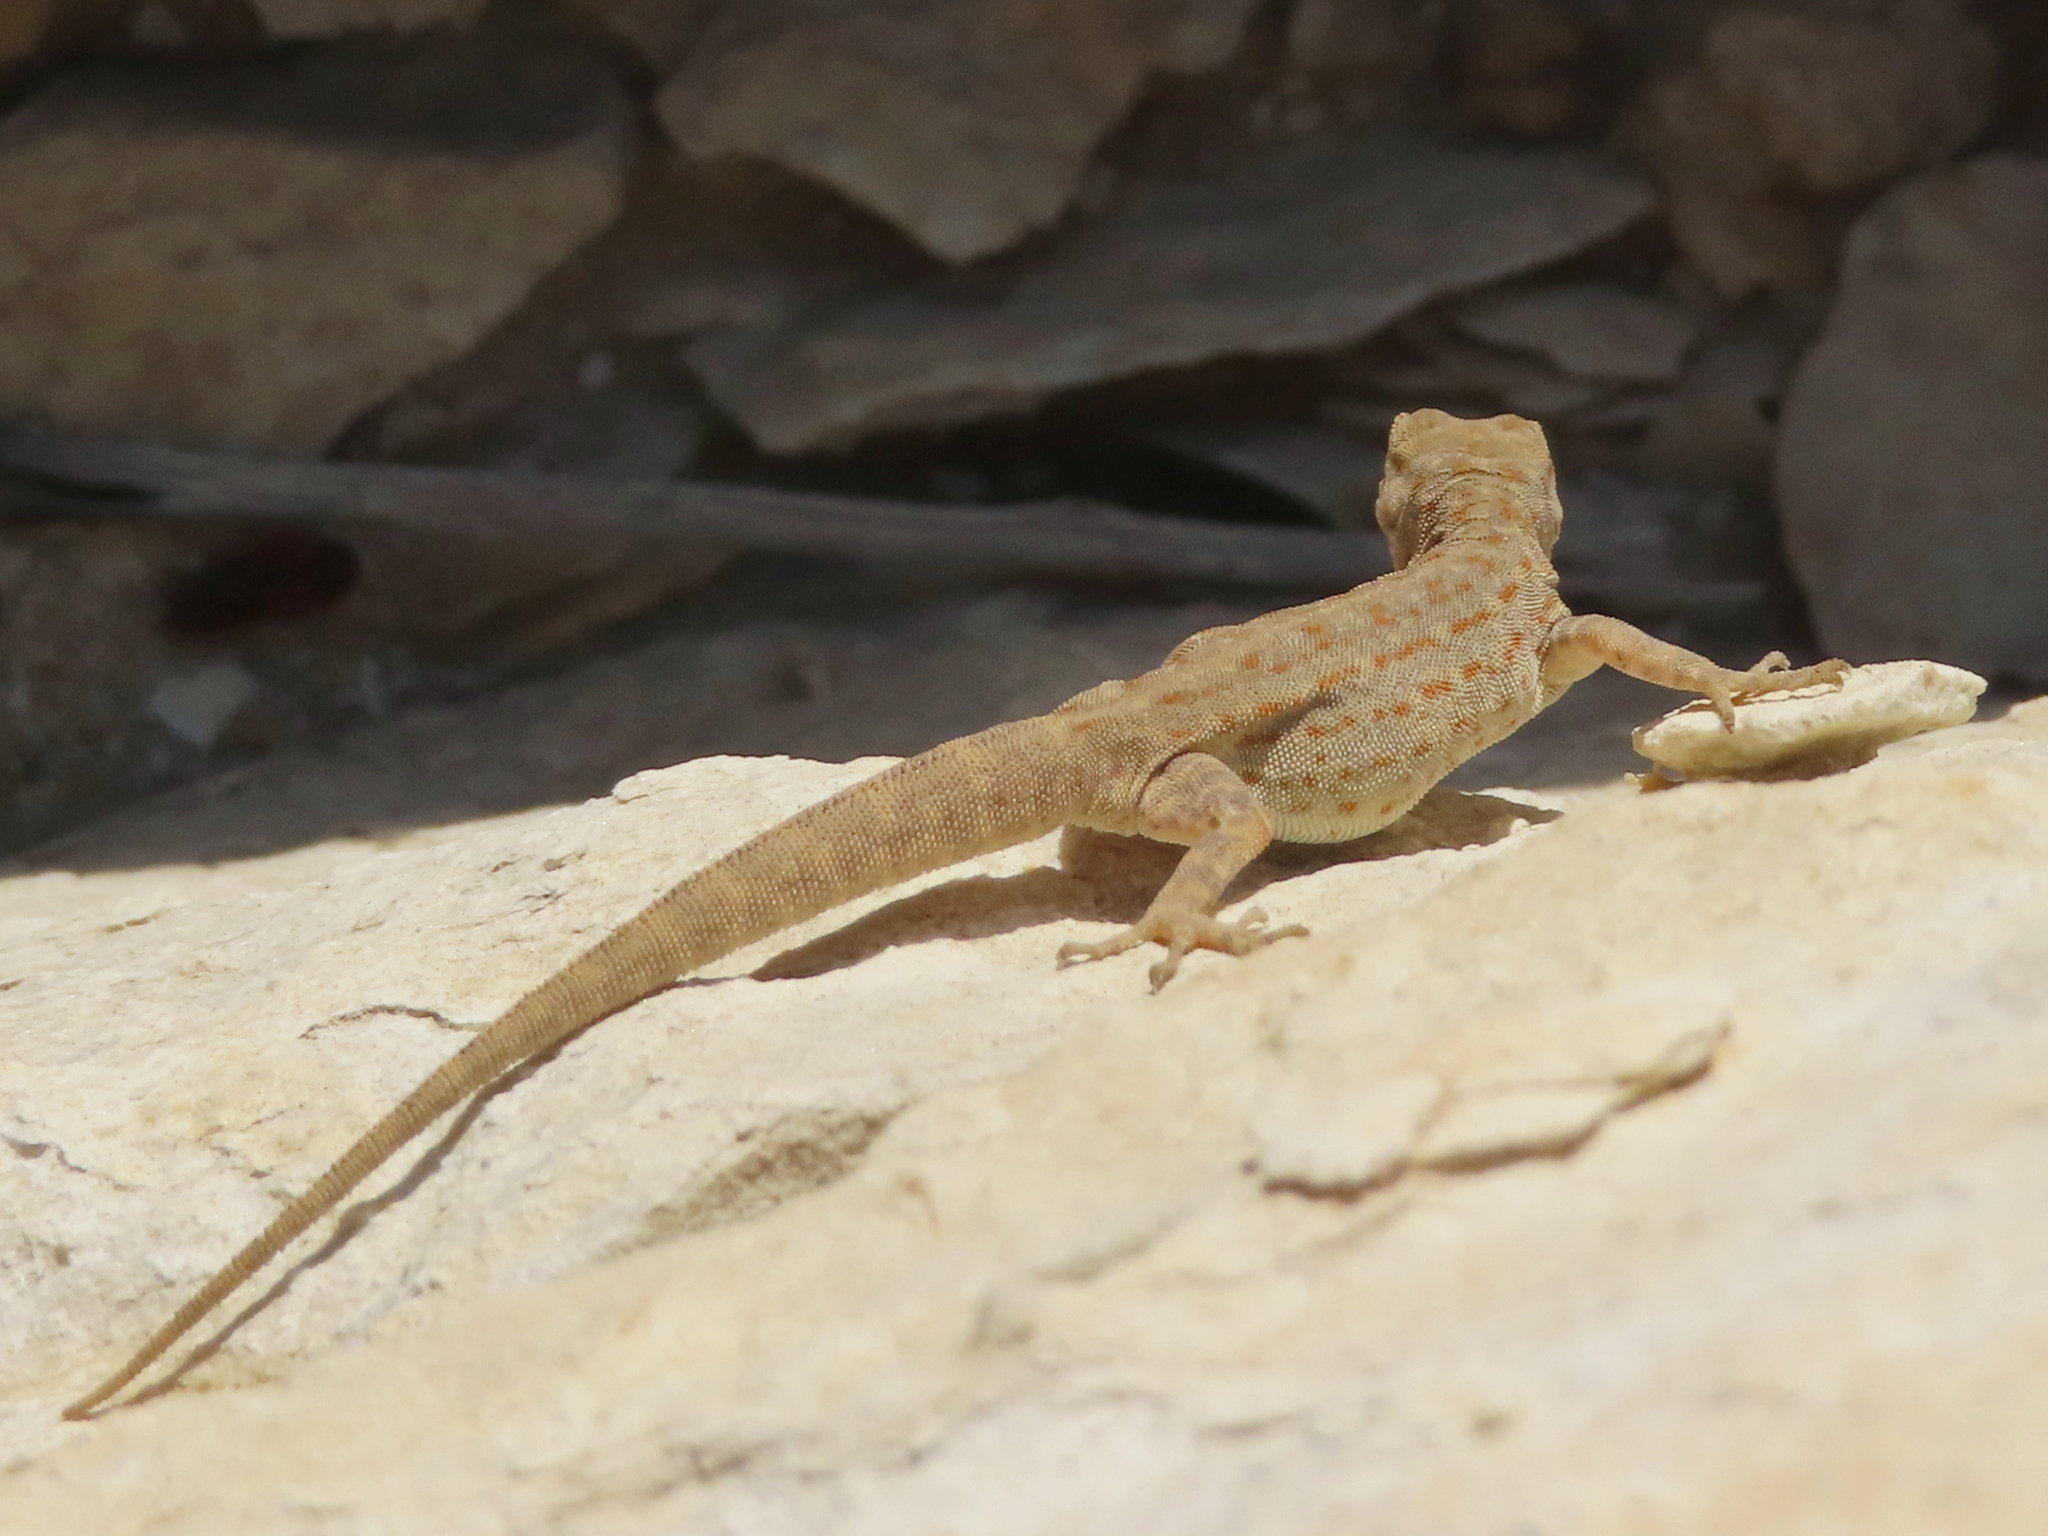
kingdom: Animalia
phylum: Chordata
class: Squamata
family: Sphaerodactylidae
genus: Pristurus
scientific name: Pristurus rupestris
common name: Blanford’s semaphore gecko
